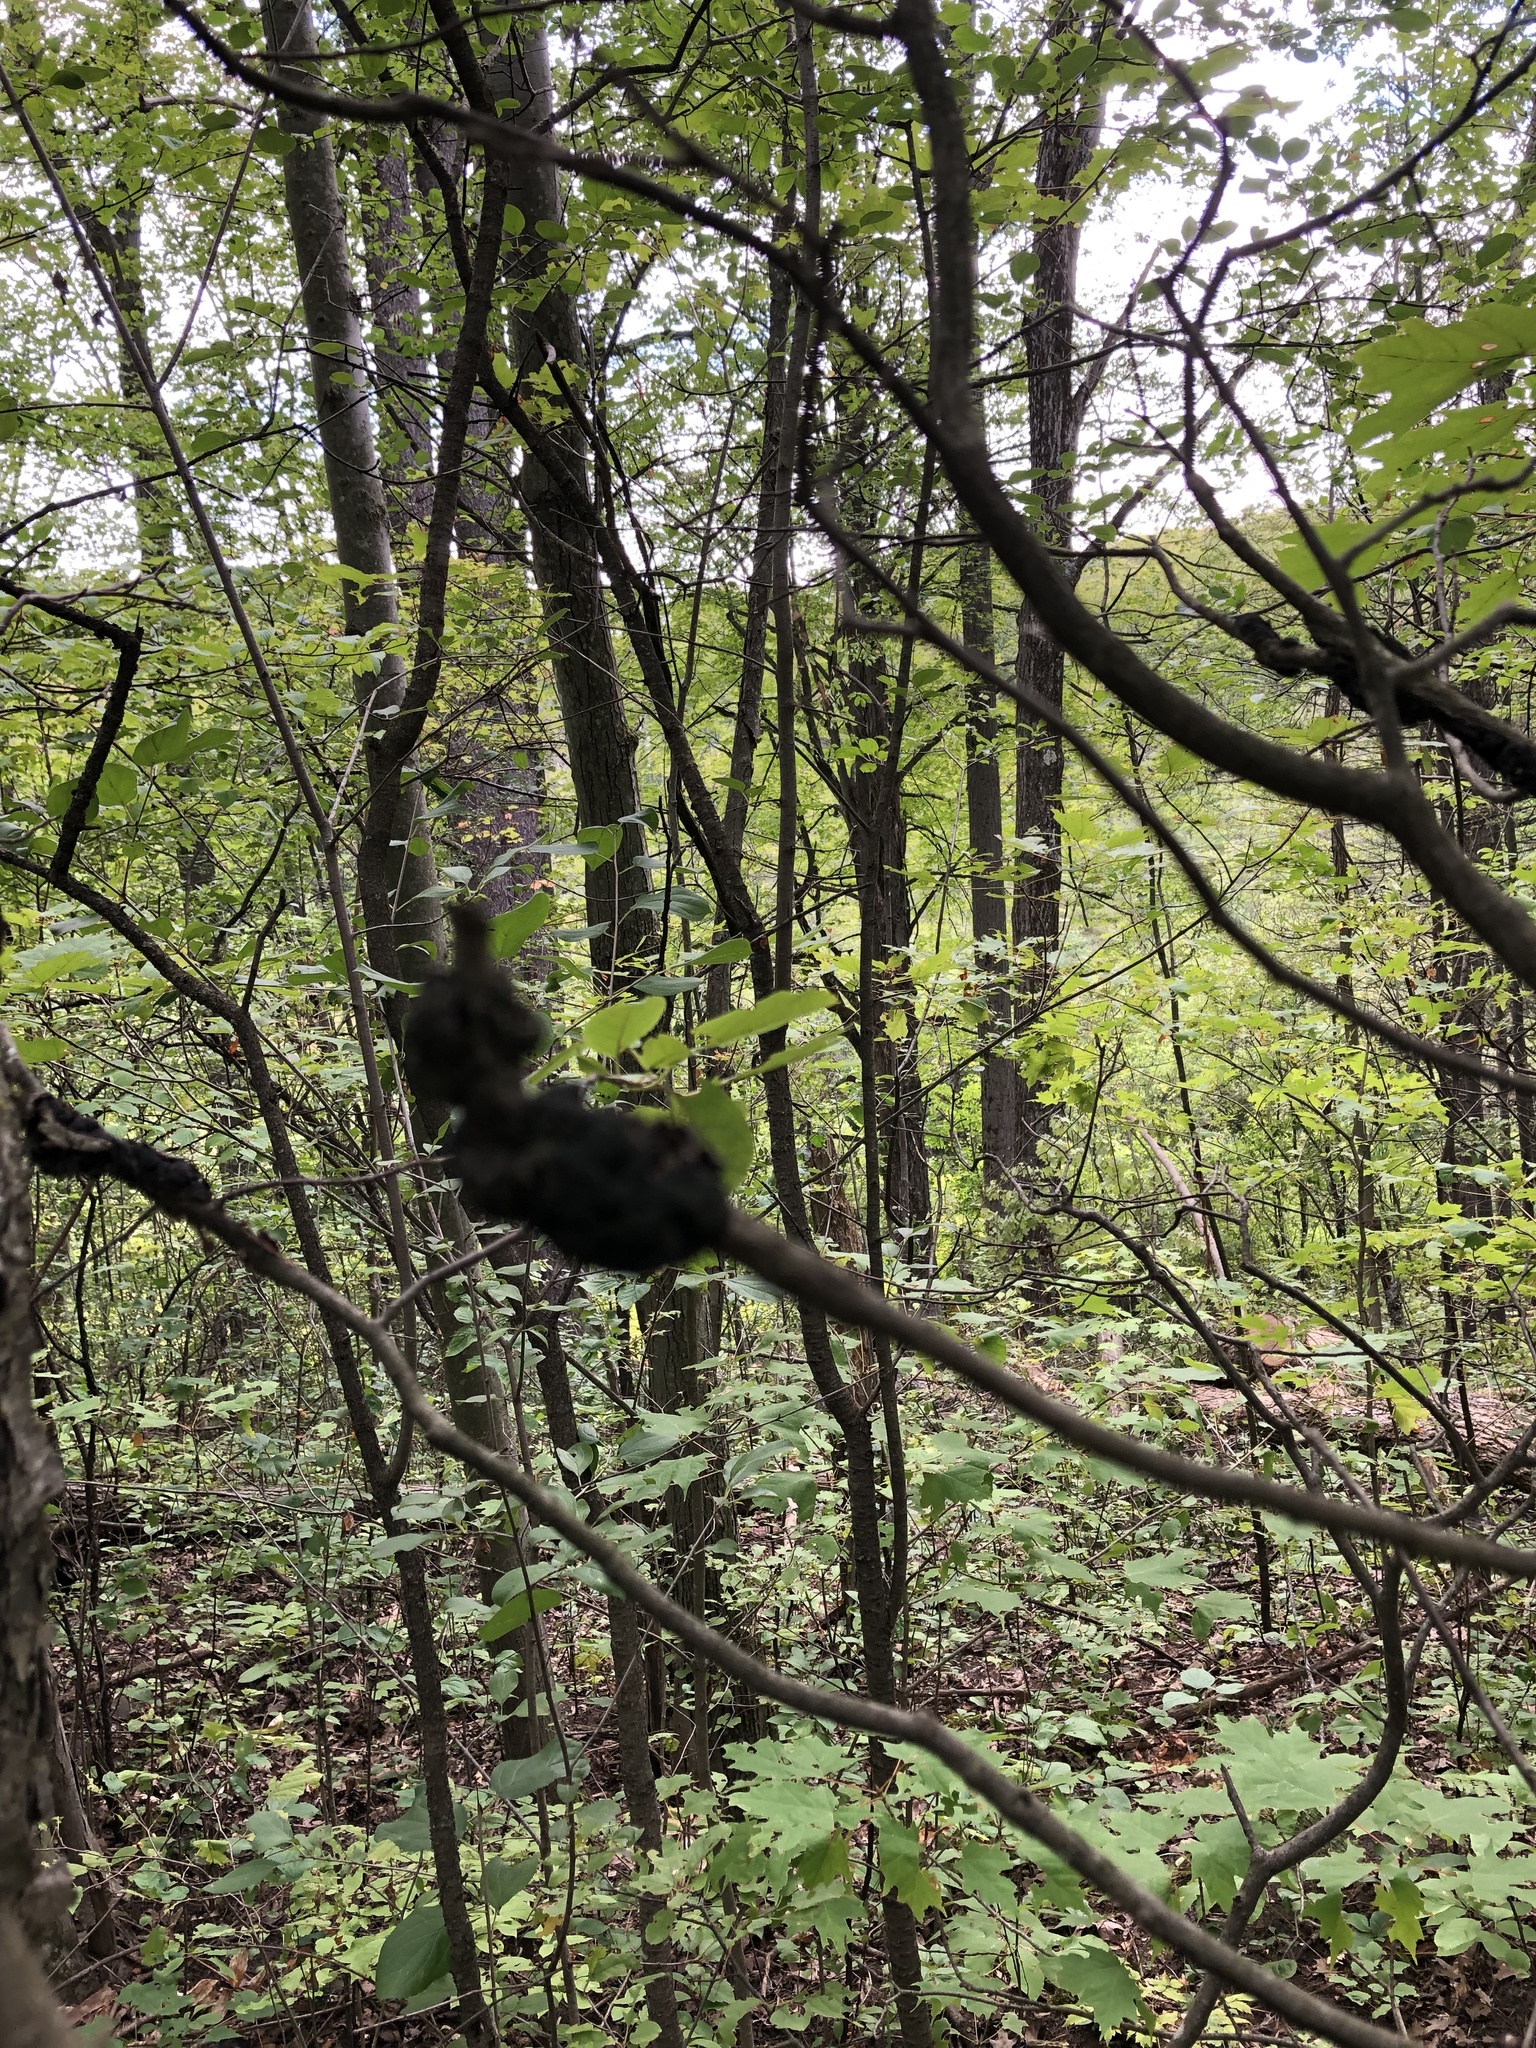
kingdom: Fungi
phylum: Ascomycota
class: Dothideomycetes
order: Venturiales
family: Venturiaceae
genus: Apiosporina
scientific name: Apiosporina morbosa
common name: Black knot
